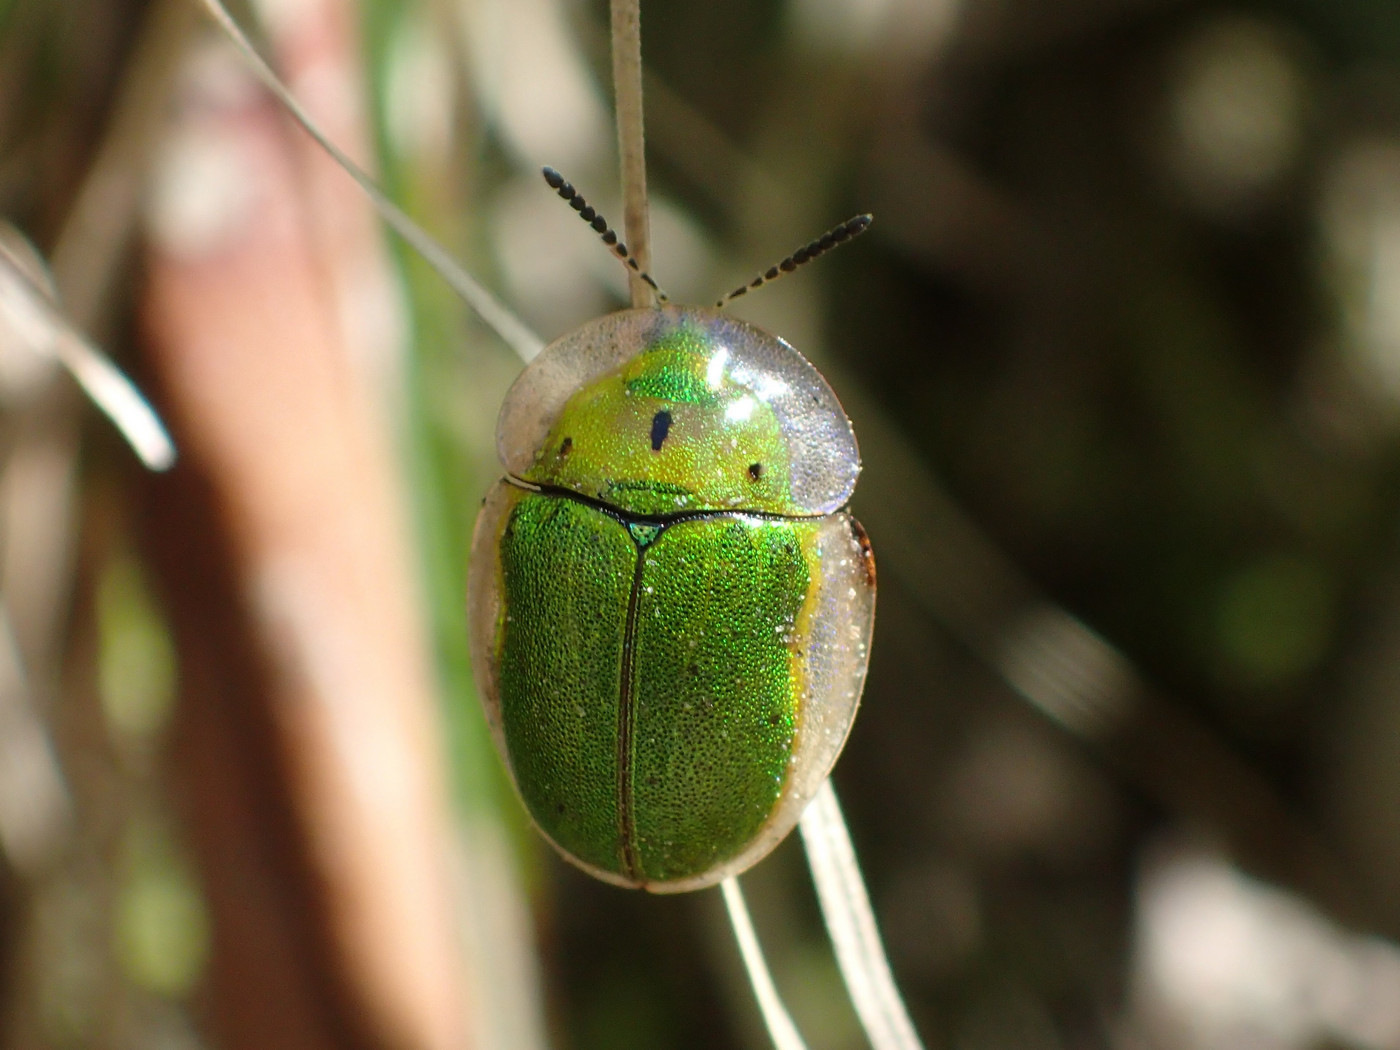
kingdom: Animalia
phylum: Arthropoda
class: Insecta
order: Coleoptera
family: Chrysomelidae
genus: Physonota
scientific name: Physonota helianthi
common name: Sunflower tortoise beetle
